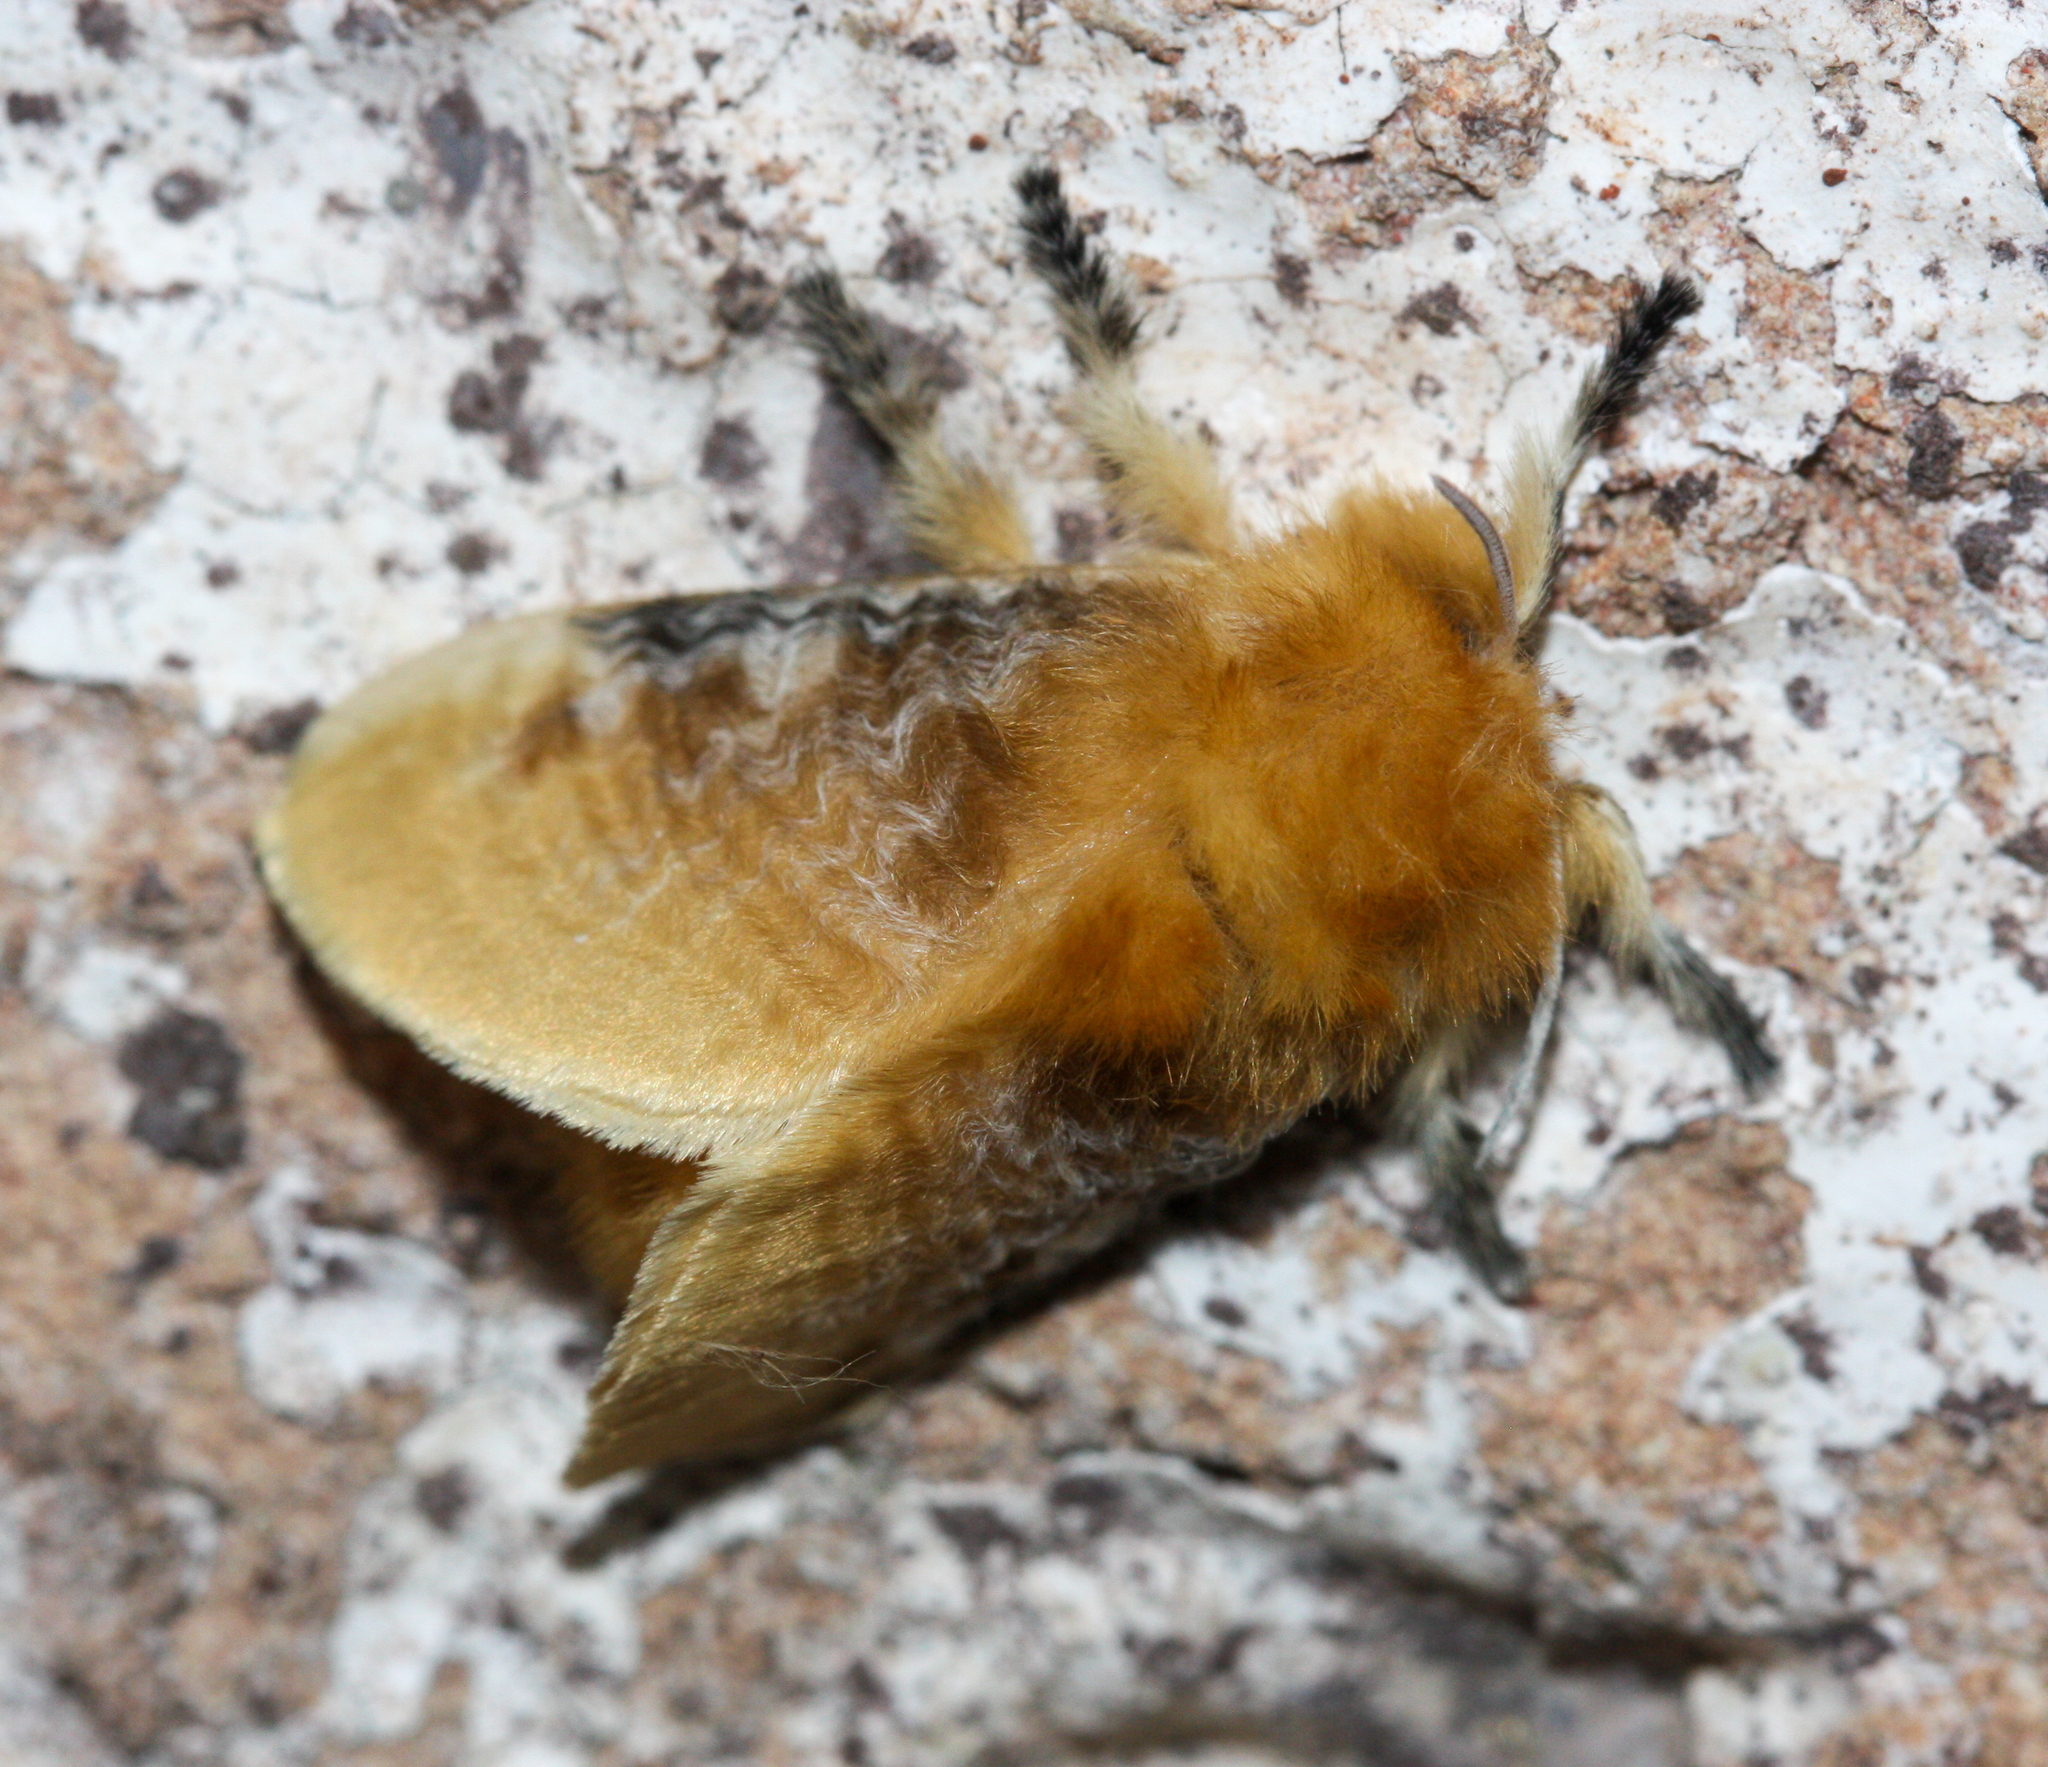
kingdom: Animalia
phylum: Arthropoda
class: Insecta
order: Lepidoptera
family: Megalopygidae
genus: Megalopyge
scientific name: Megalopyge opercularis
